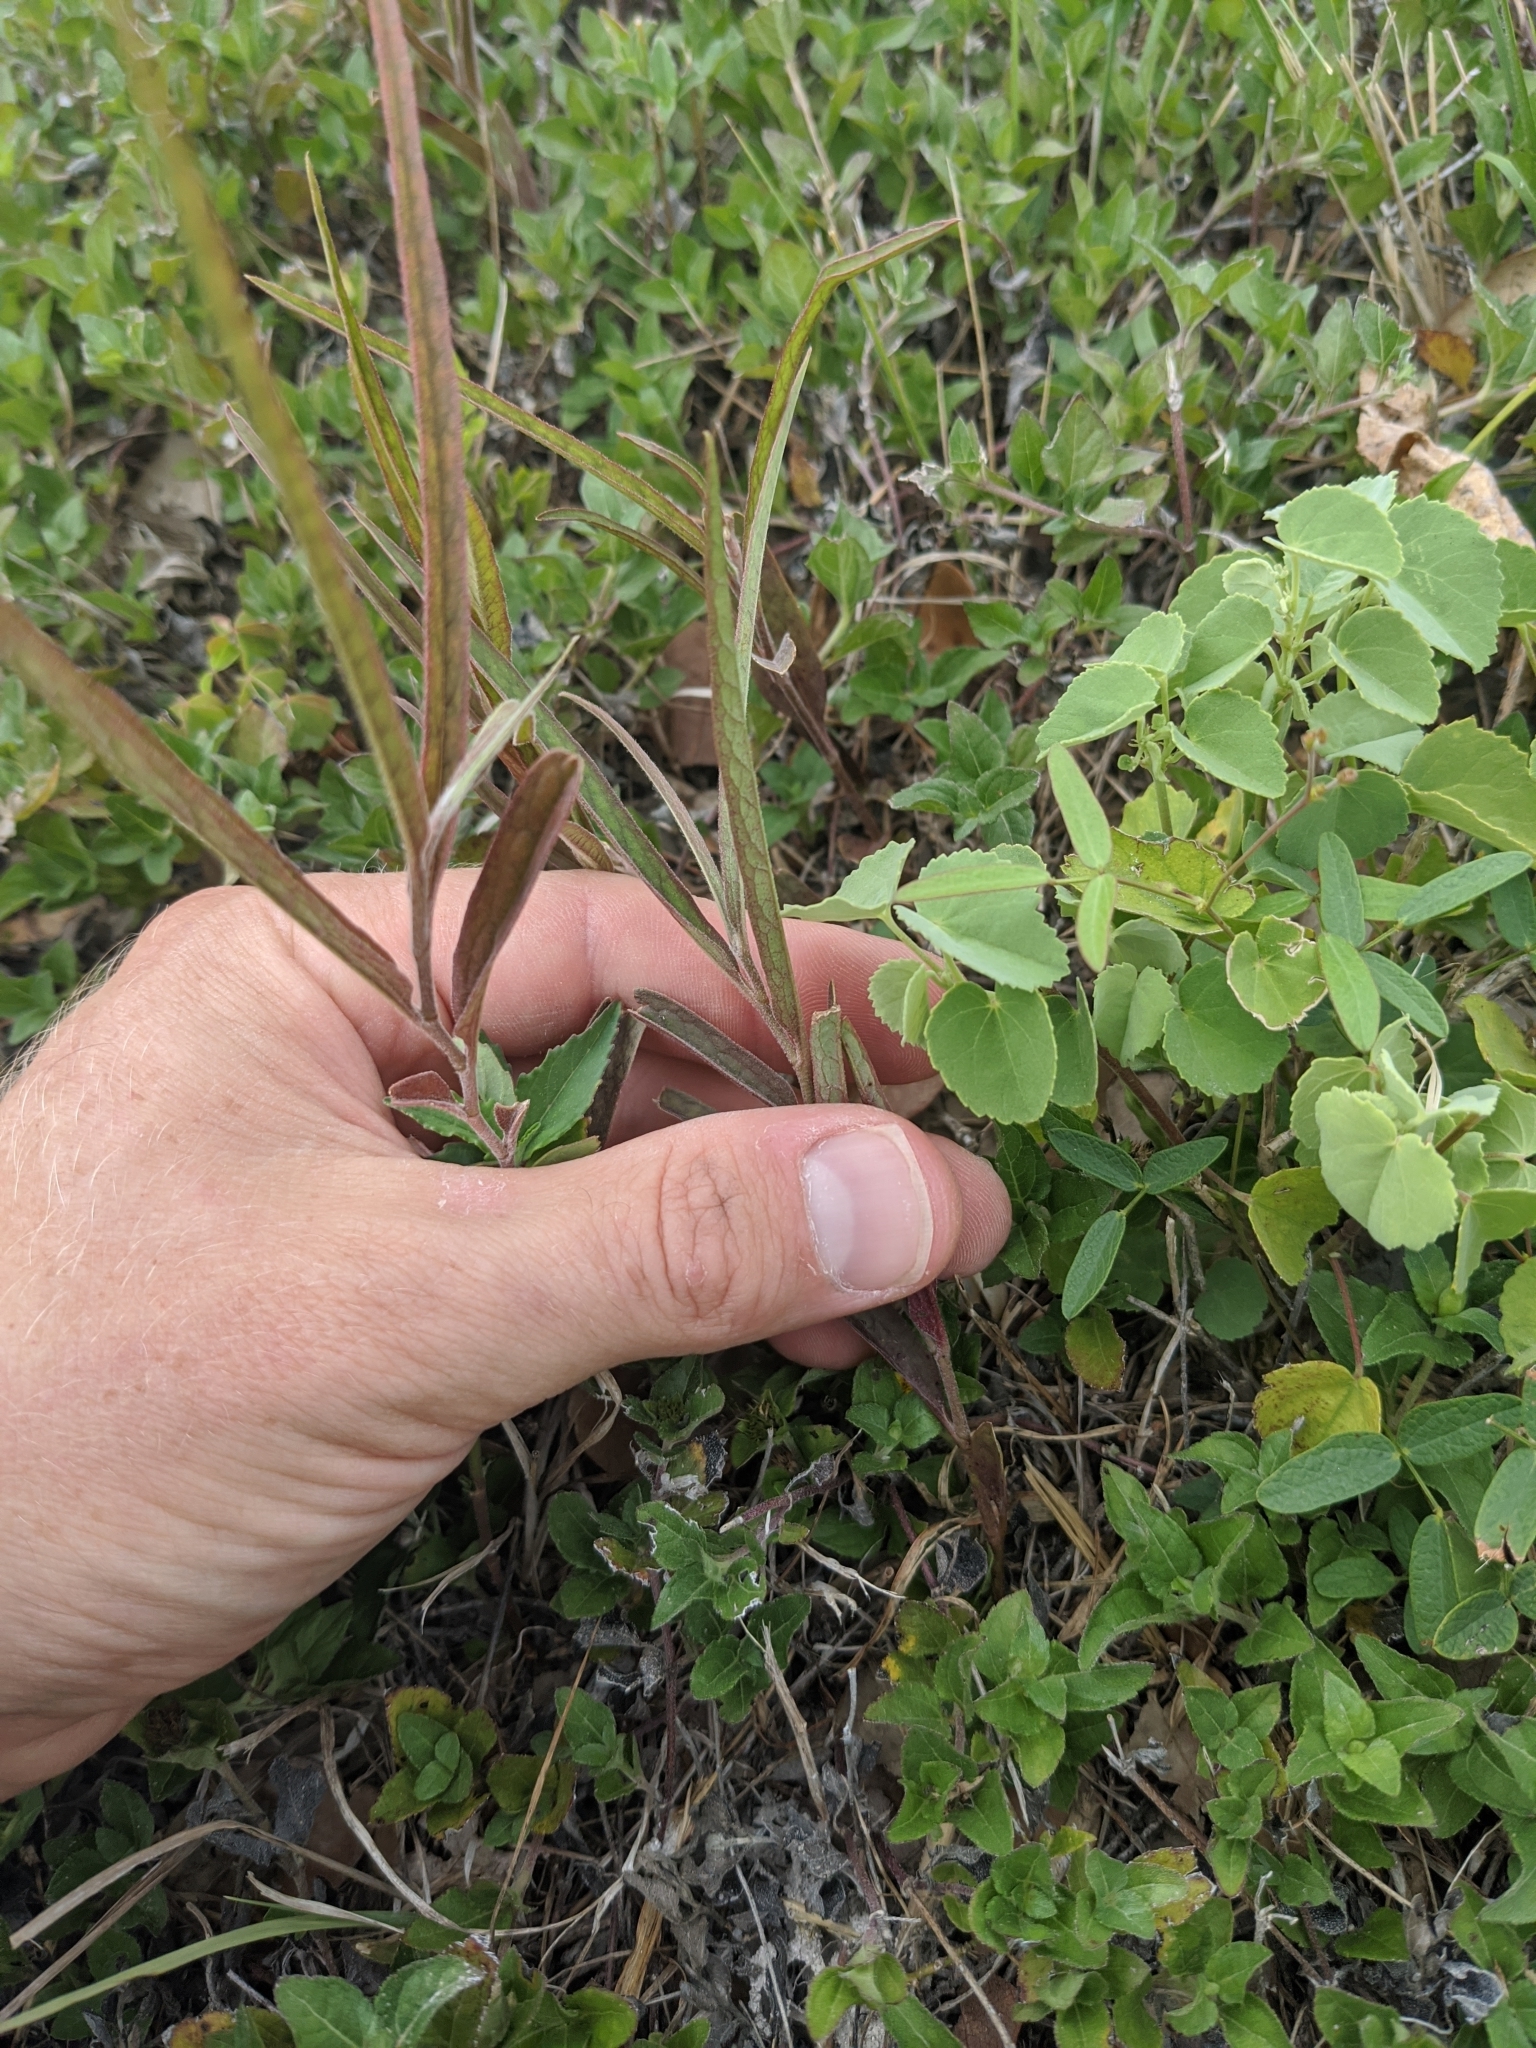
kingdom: Plantae
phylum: Tracheophyta
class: Magnoliopsida
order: Piperales
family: Aristolochiaceae
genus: Aristolochia
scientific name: Aristolochia erecta
